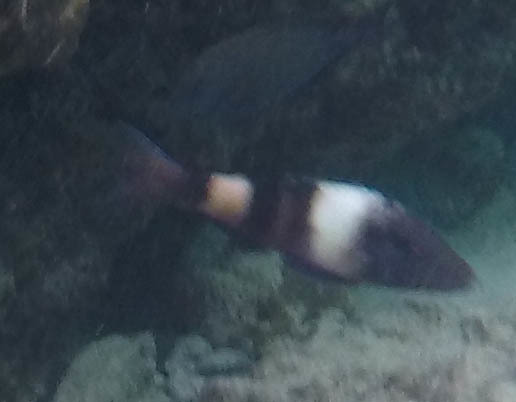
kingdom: Animalia
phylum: Chordata
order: Perciformes
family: Mullidae
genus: Parupeneus
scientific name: Parupeneus multifasciatus
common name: Manybar goatfish
